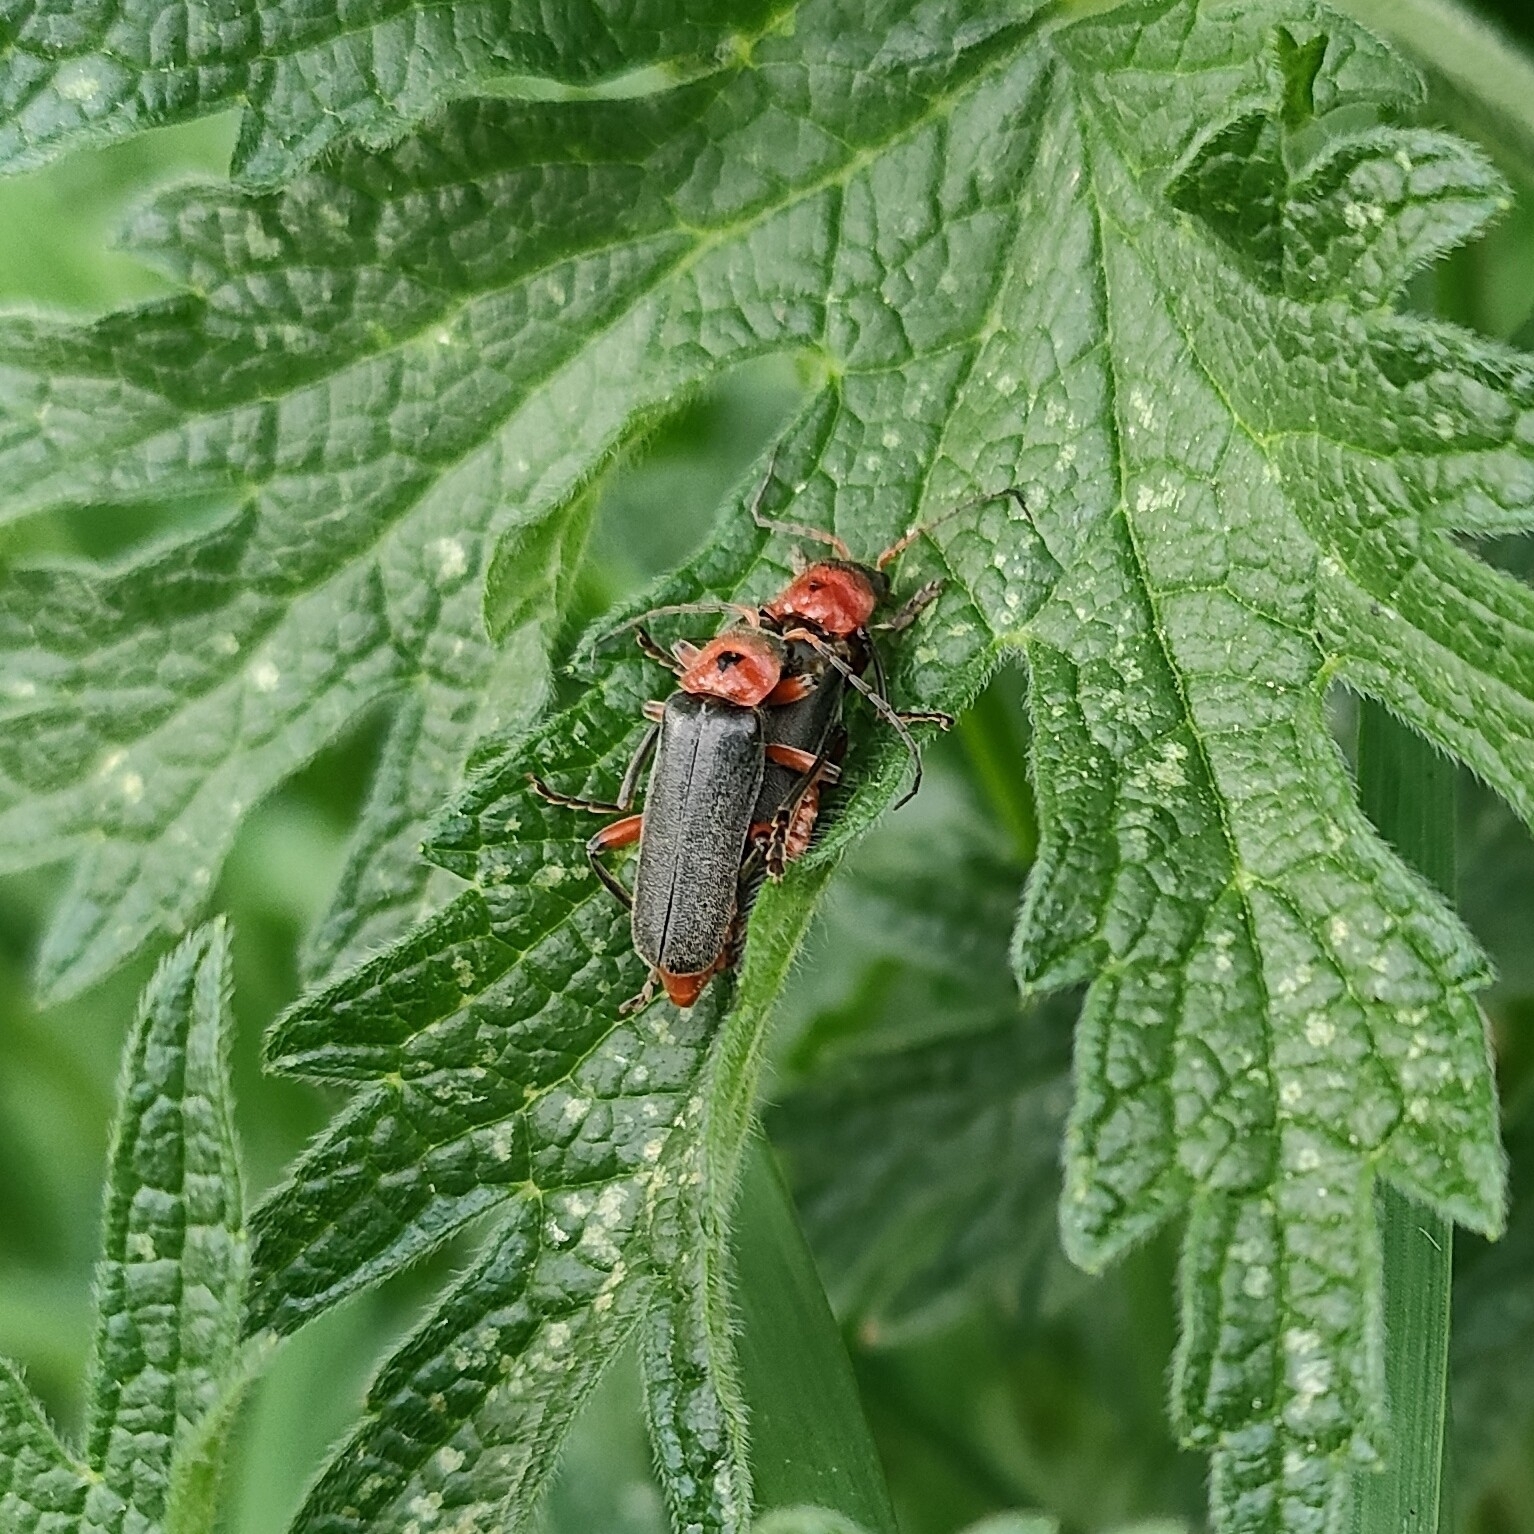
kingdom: Animalia
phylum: Arthropoda
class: Insecta
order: Coleoptera
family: Cantharidae
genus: Cantharis
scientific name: Cantharis rustica
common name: Soldier beetle
